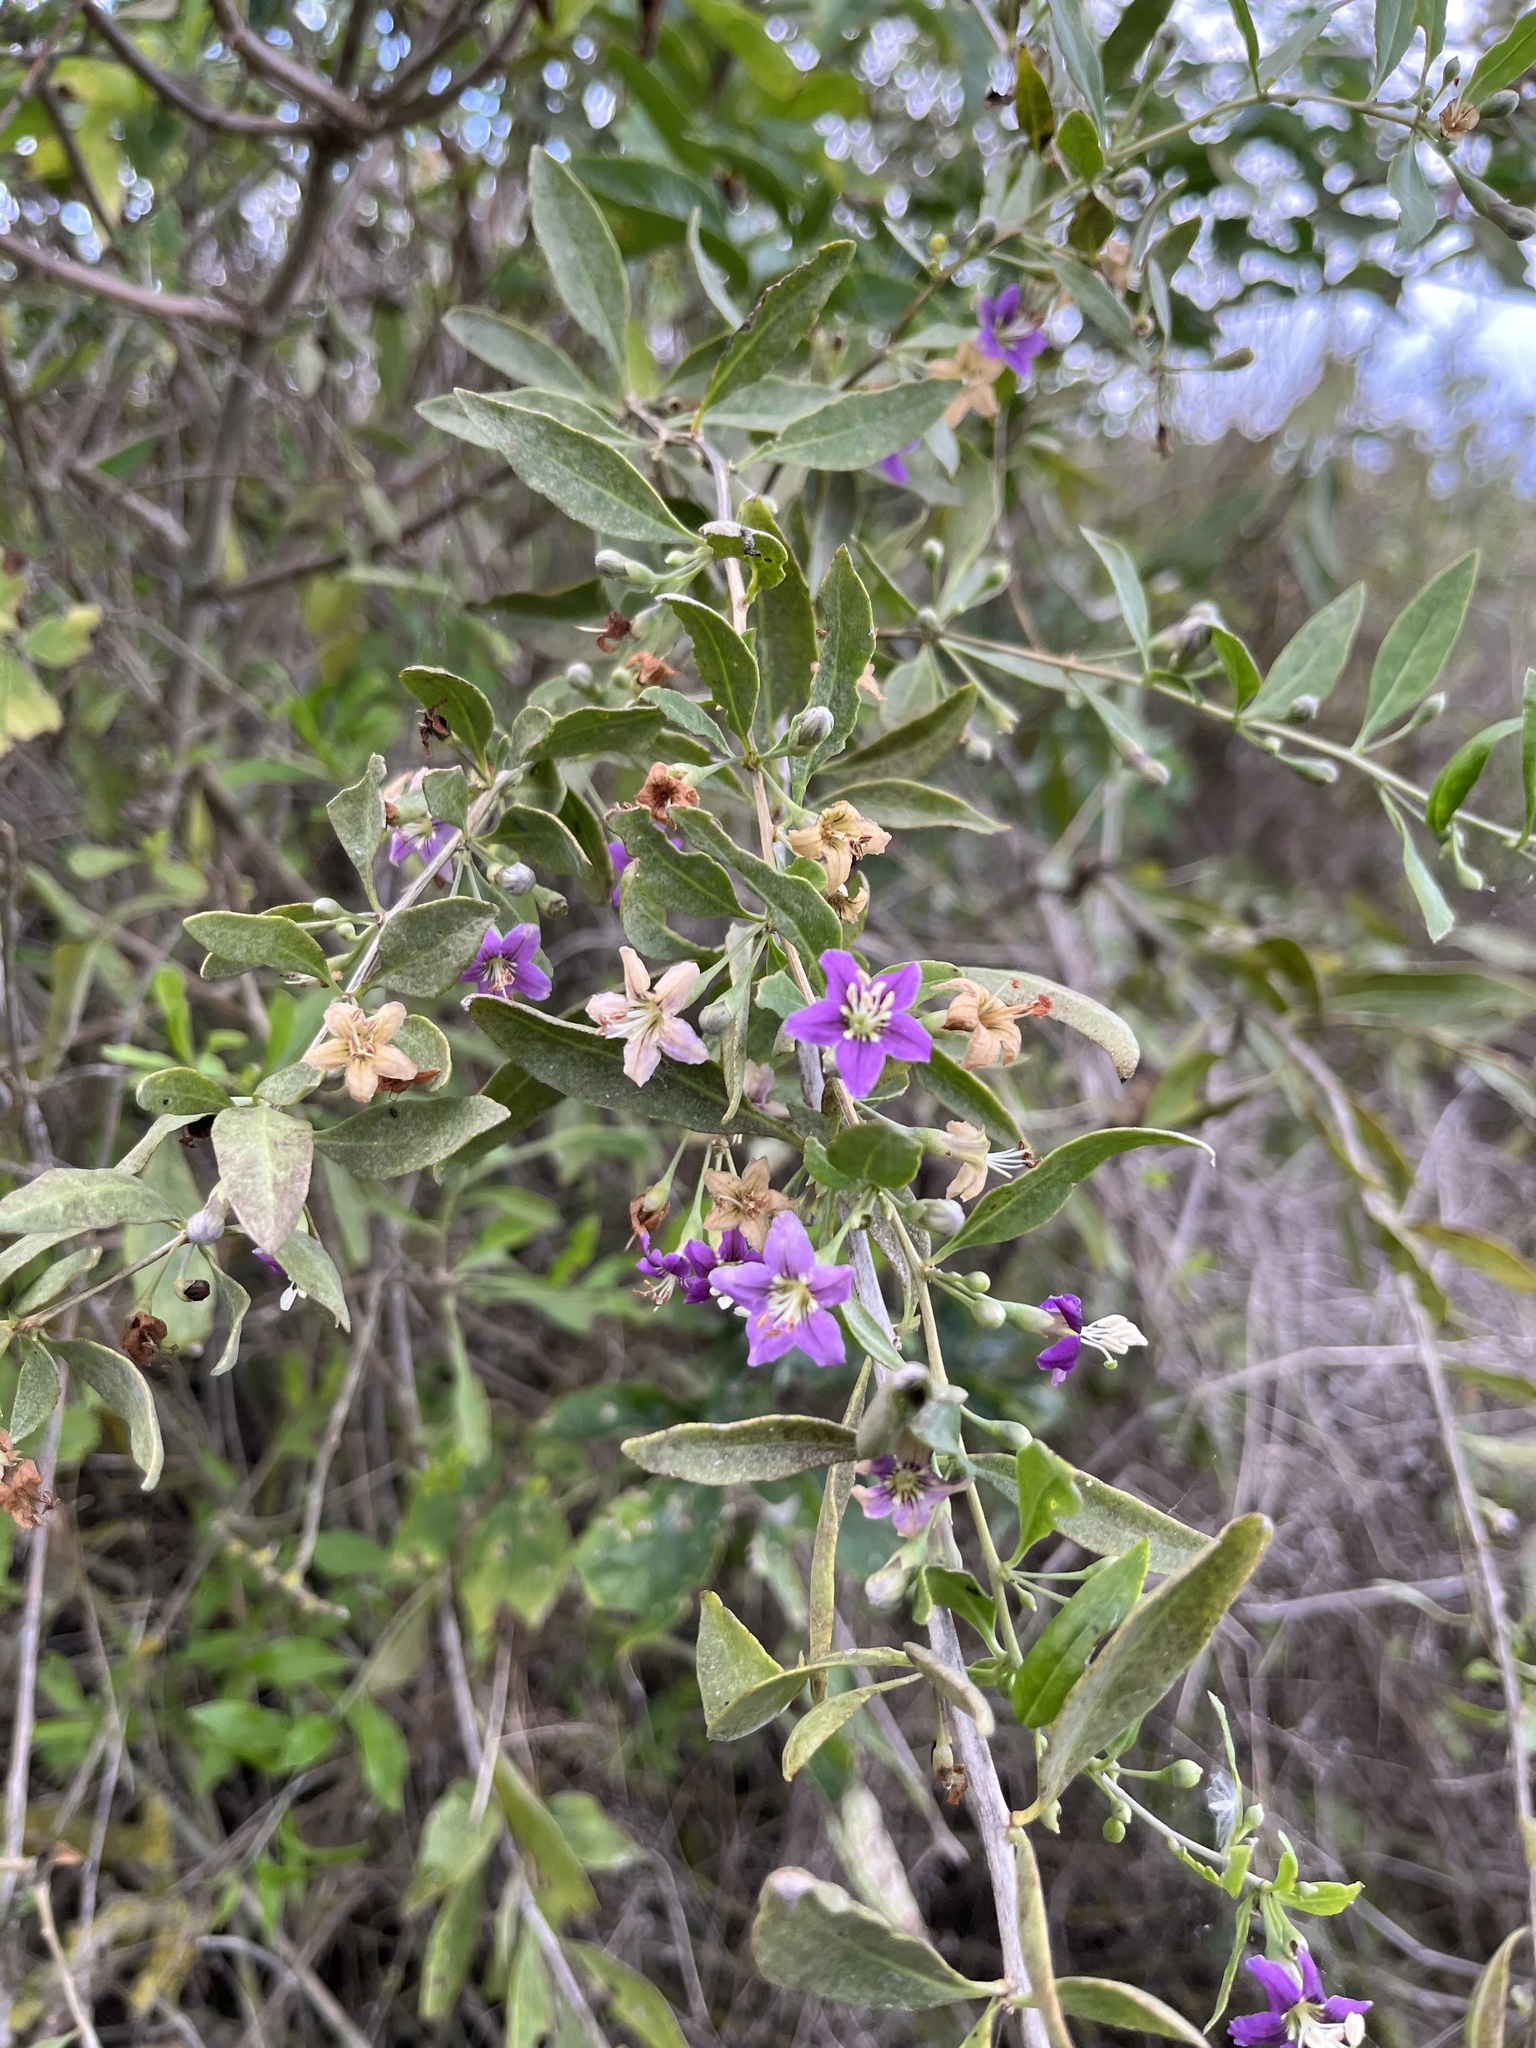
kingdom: Plantae
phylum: Tracheophyta
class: Magnoliopsida
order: Solanales
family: Solanaceae
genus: Lycium
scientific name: Lycium barbarum
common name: Duke of argyll's teaplant
